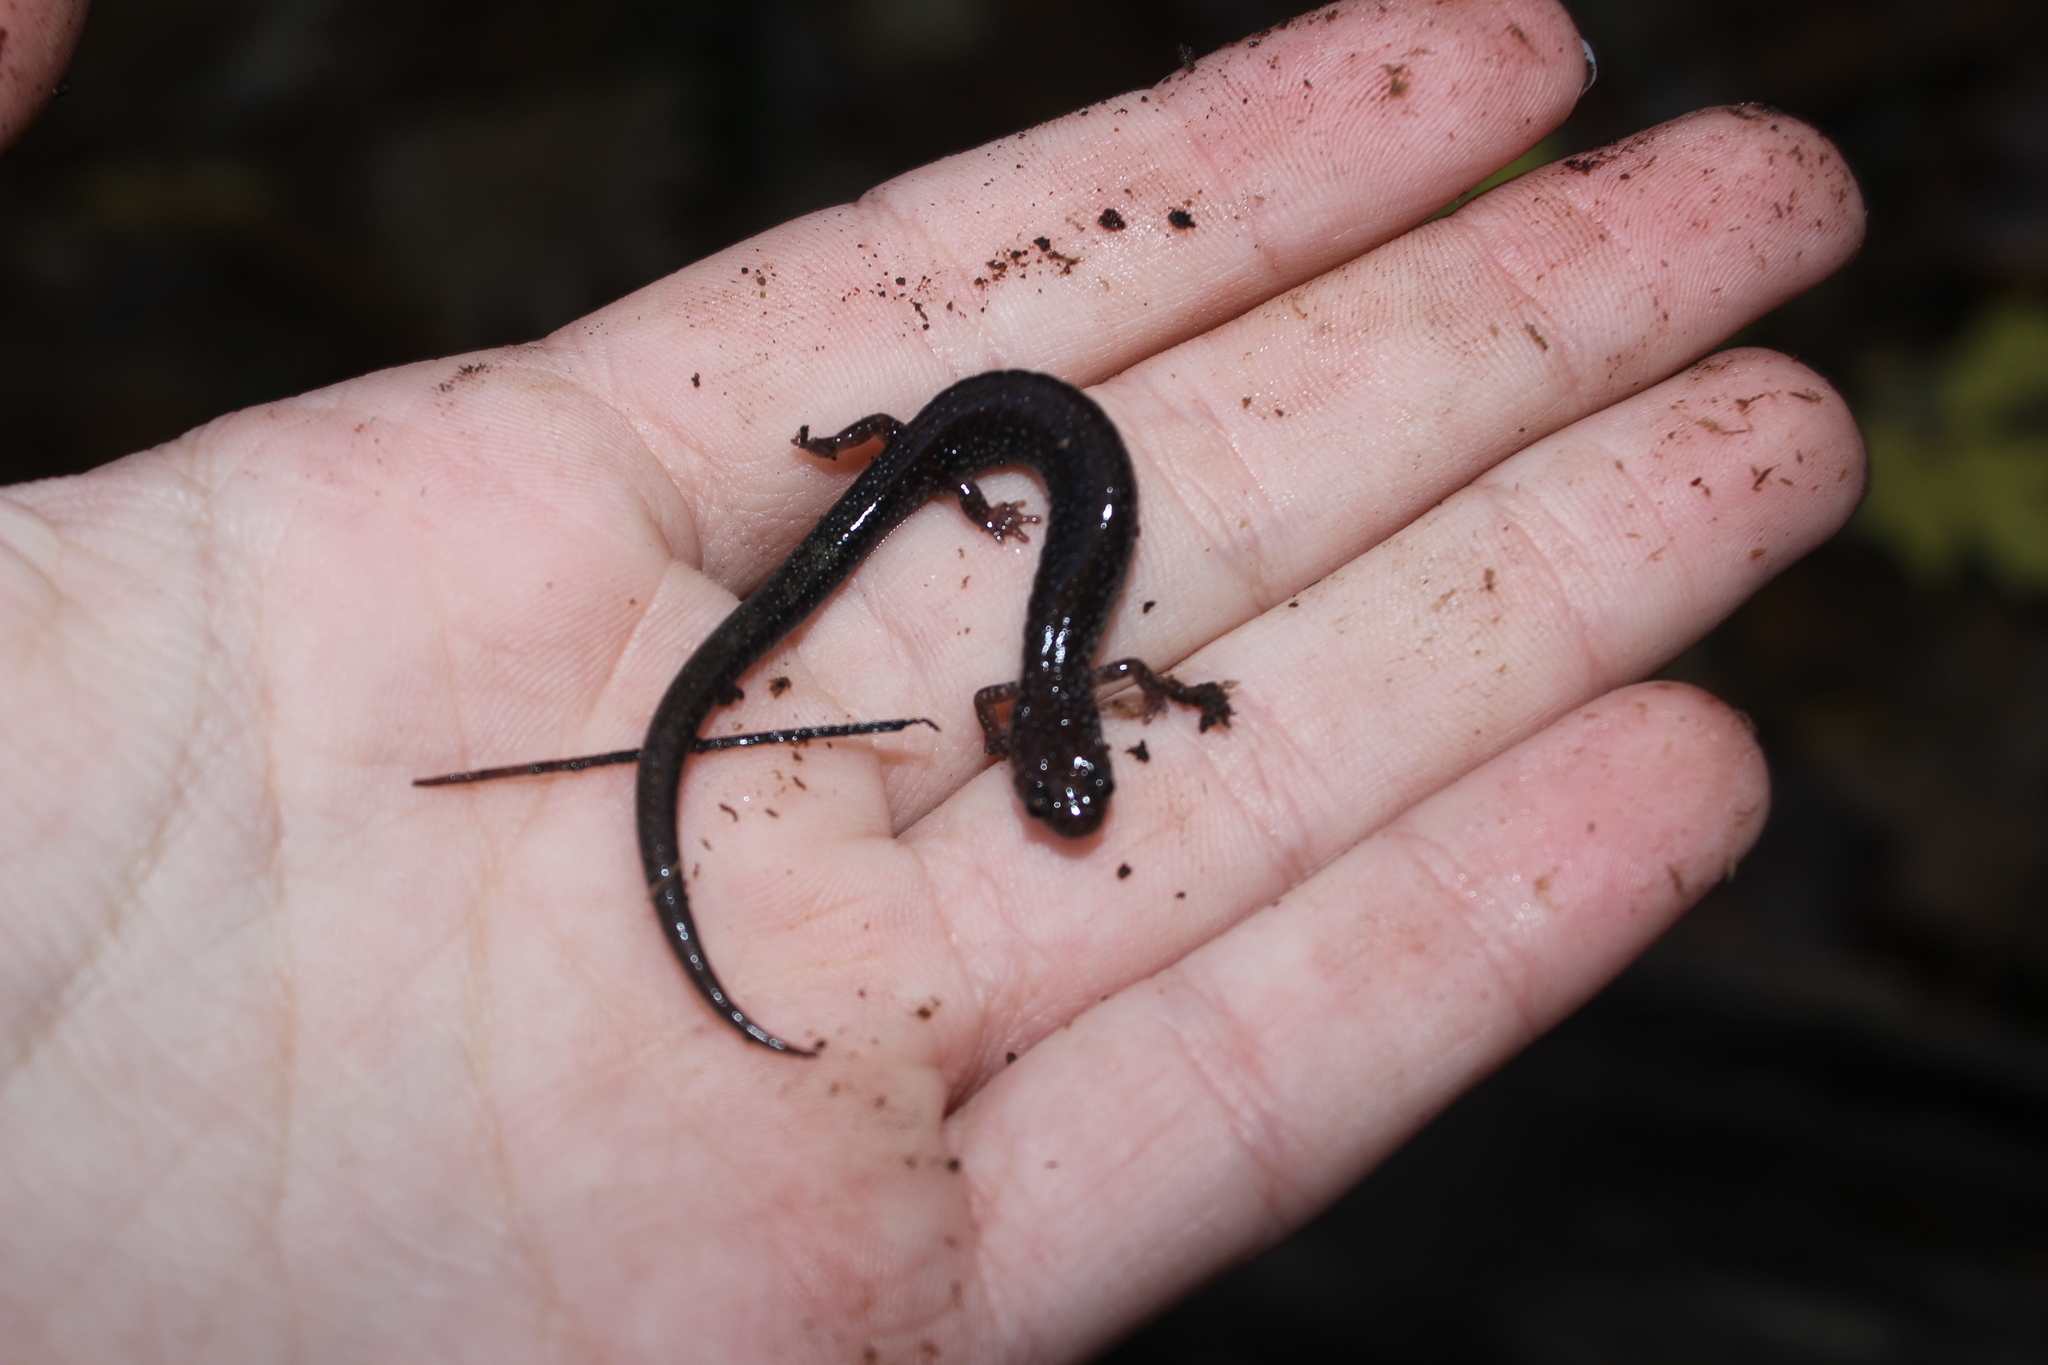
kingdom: Animalia
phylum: Chordata
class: Amphibia
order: Caudata
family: Plethodontidae
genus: Plethodon
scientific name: Plethodon cinereus
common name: Redback salamander
